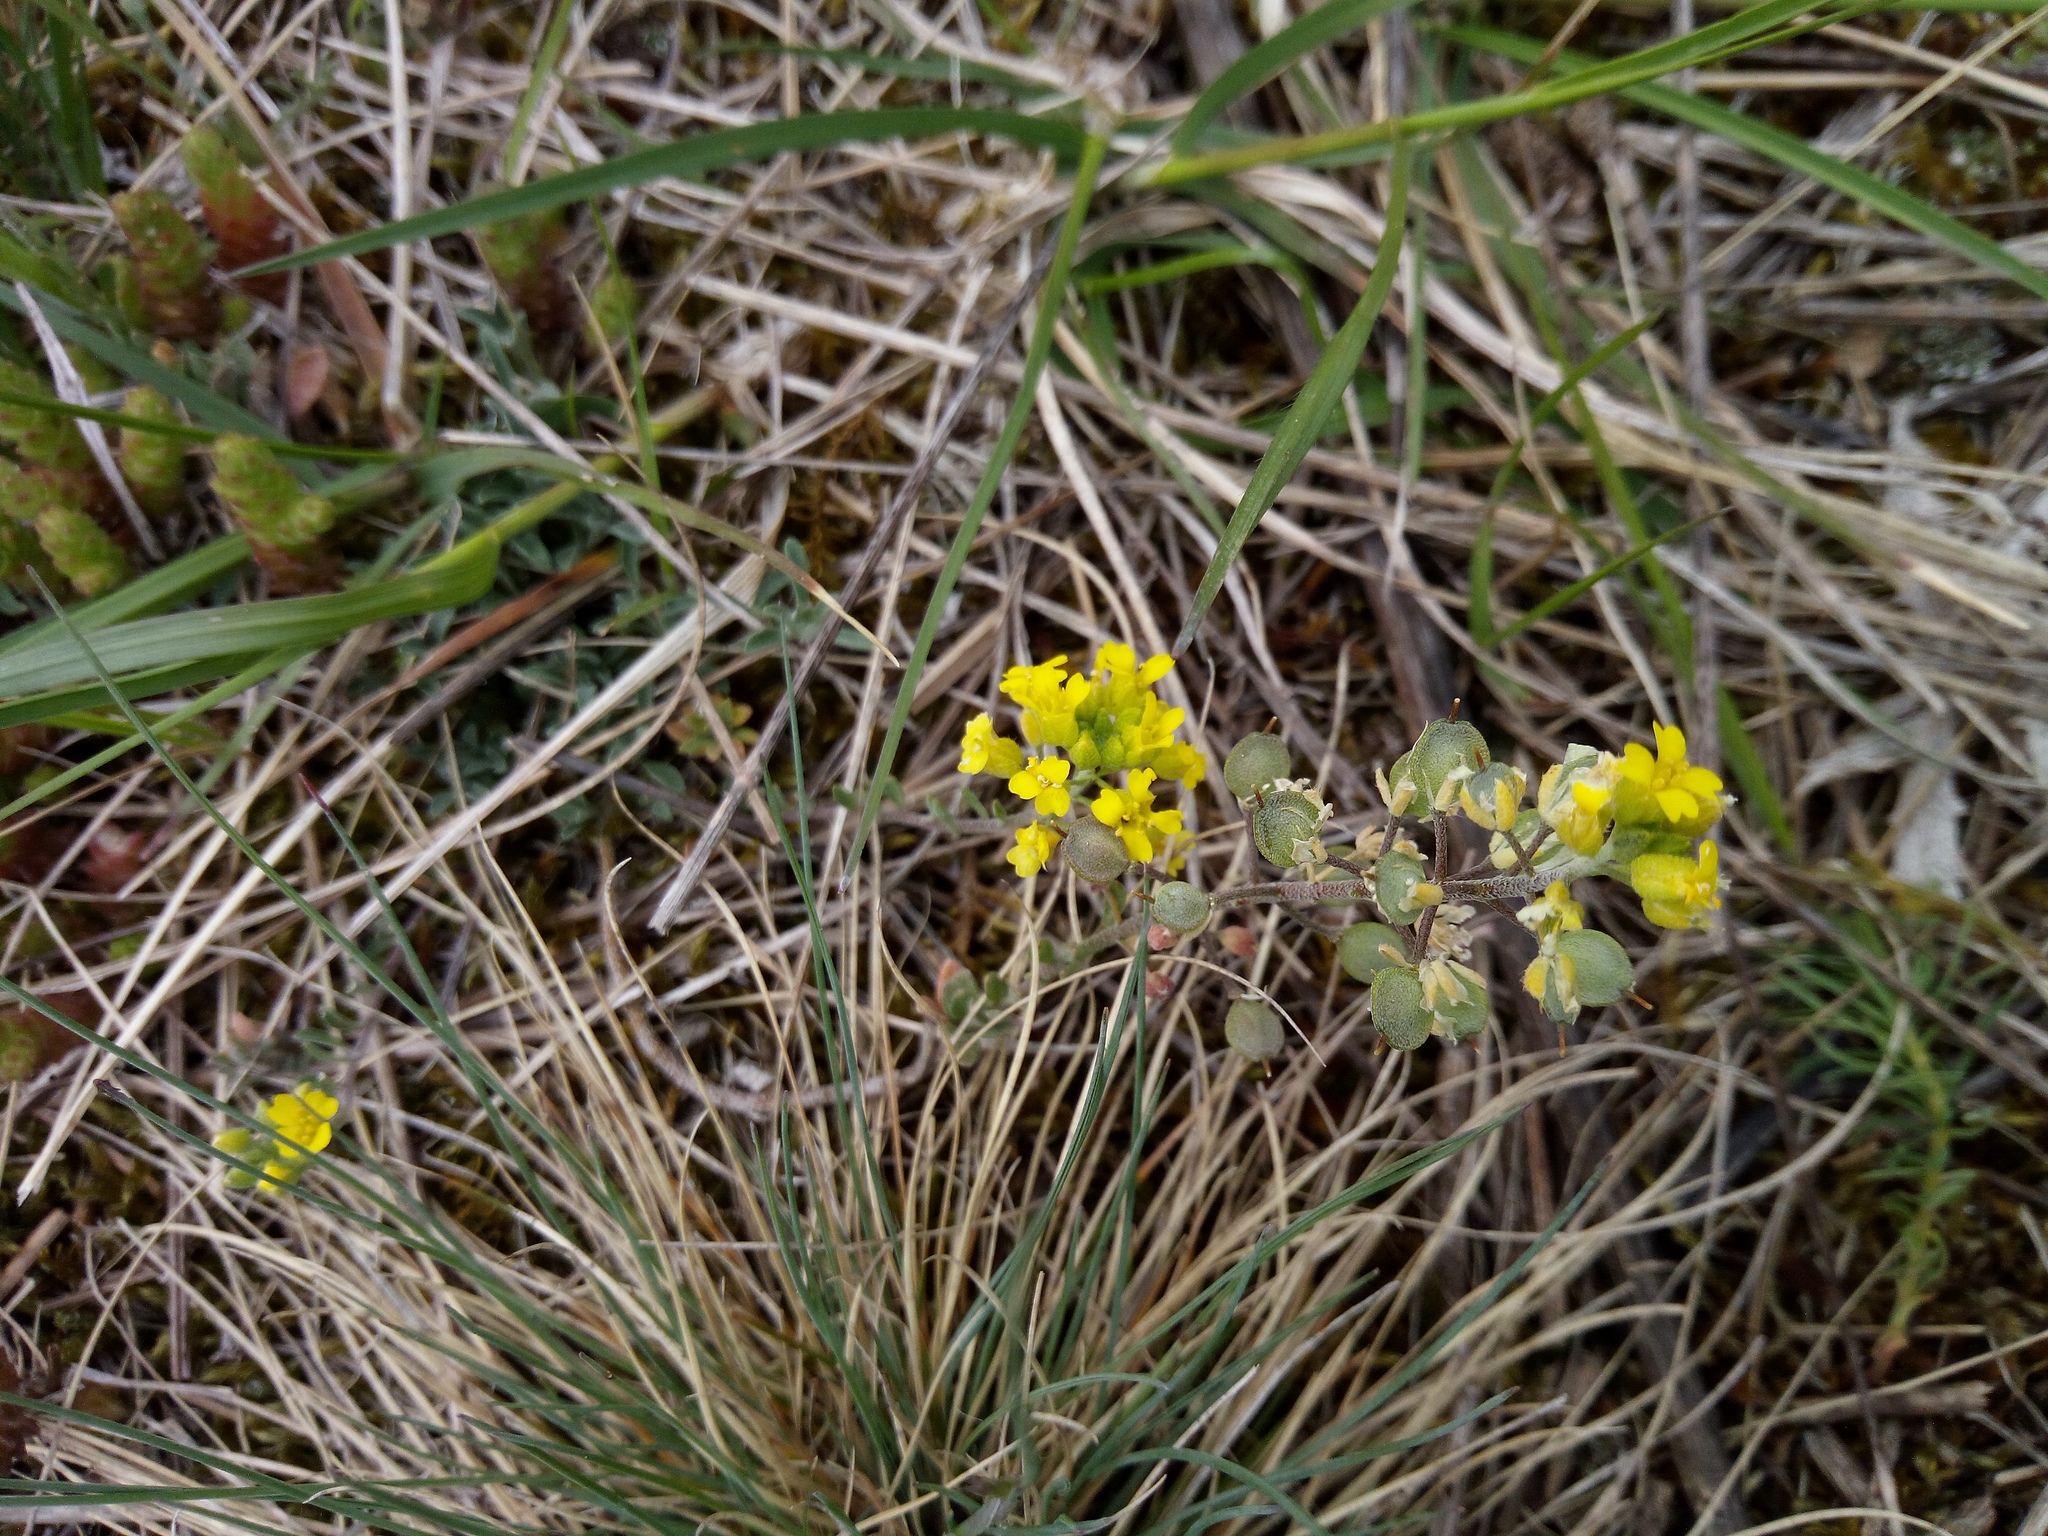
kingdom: Plantae
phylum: Tracheophyta
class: Magnoliopsida
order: Brassicales
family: Brassicaceae
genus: Alyssum
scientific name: Alyssum gmelinii
